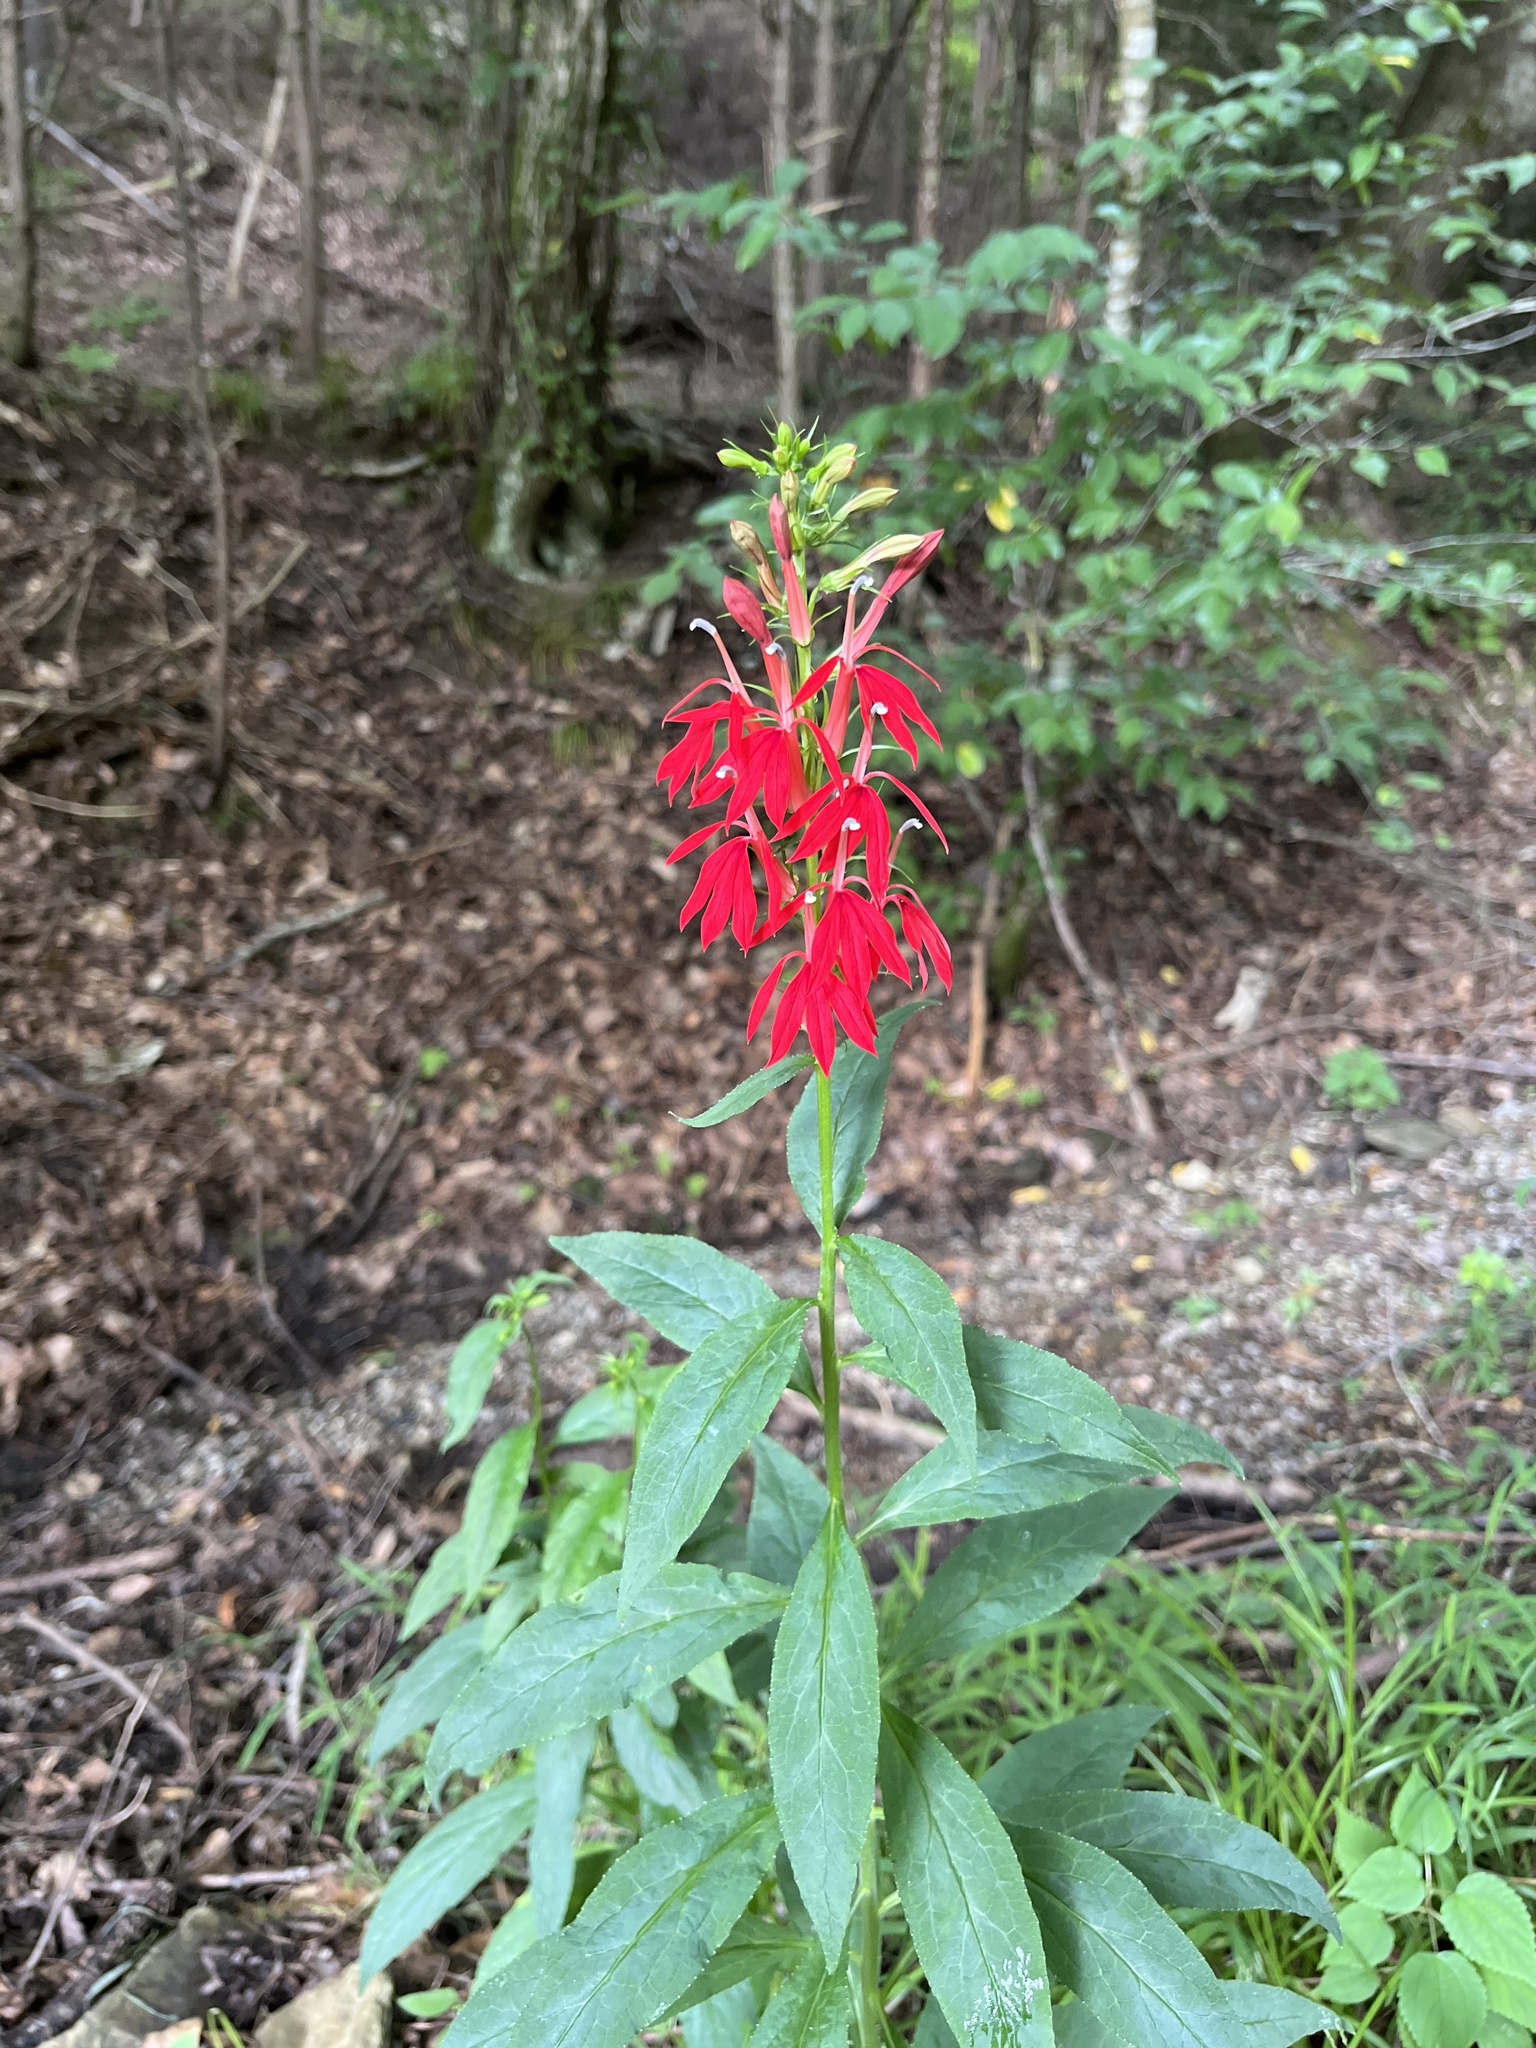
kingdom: Plantae
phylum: Tracheophyta
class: Magnoliopsida
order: Asterales
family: Campanulaceae
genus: Lobelia
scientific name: Lobelia cardinalis
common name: Cardinal flower
